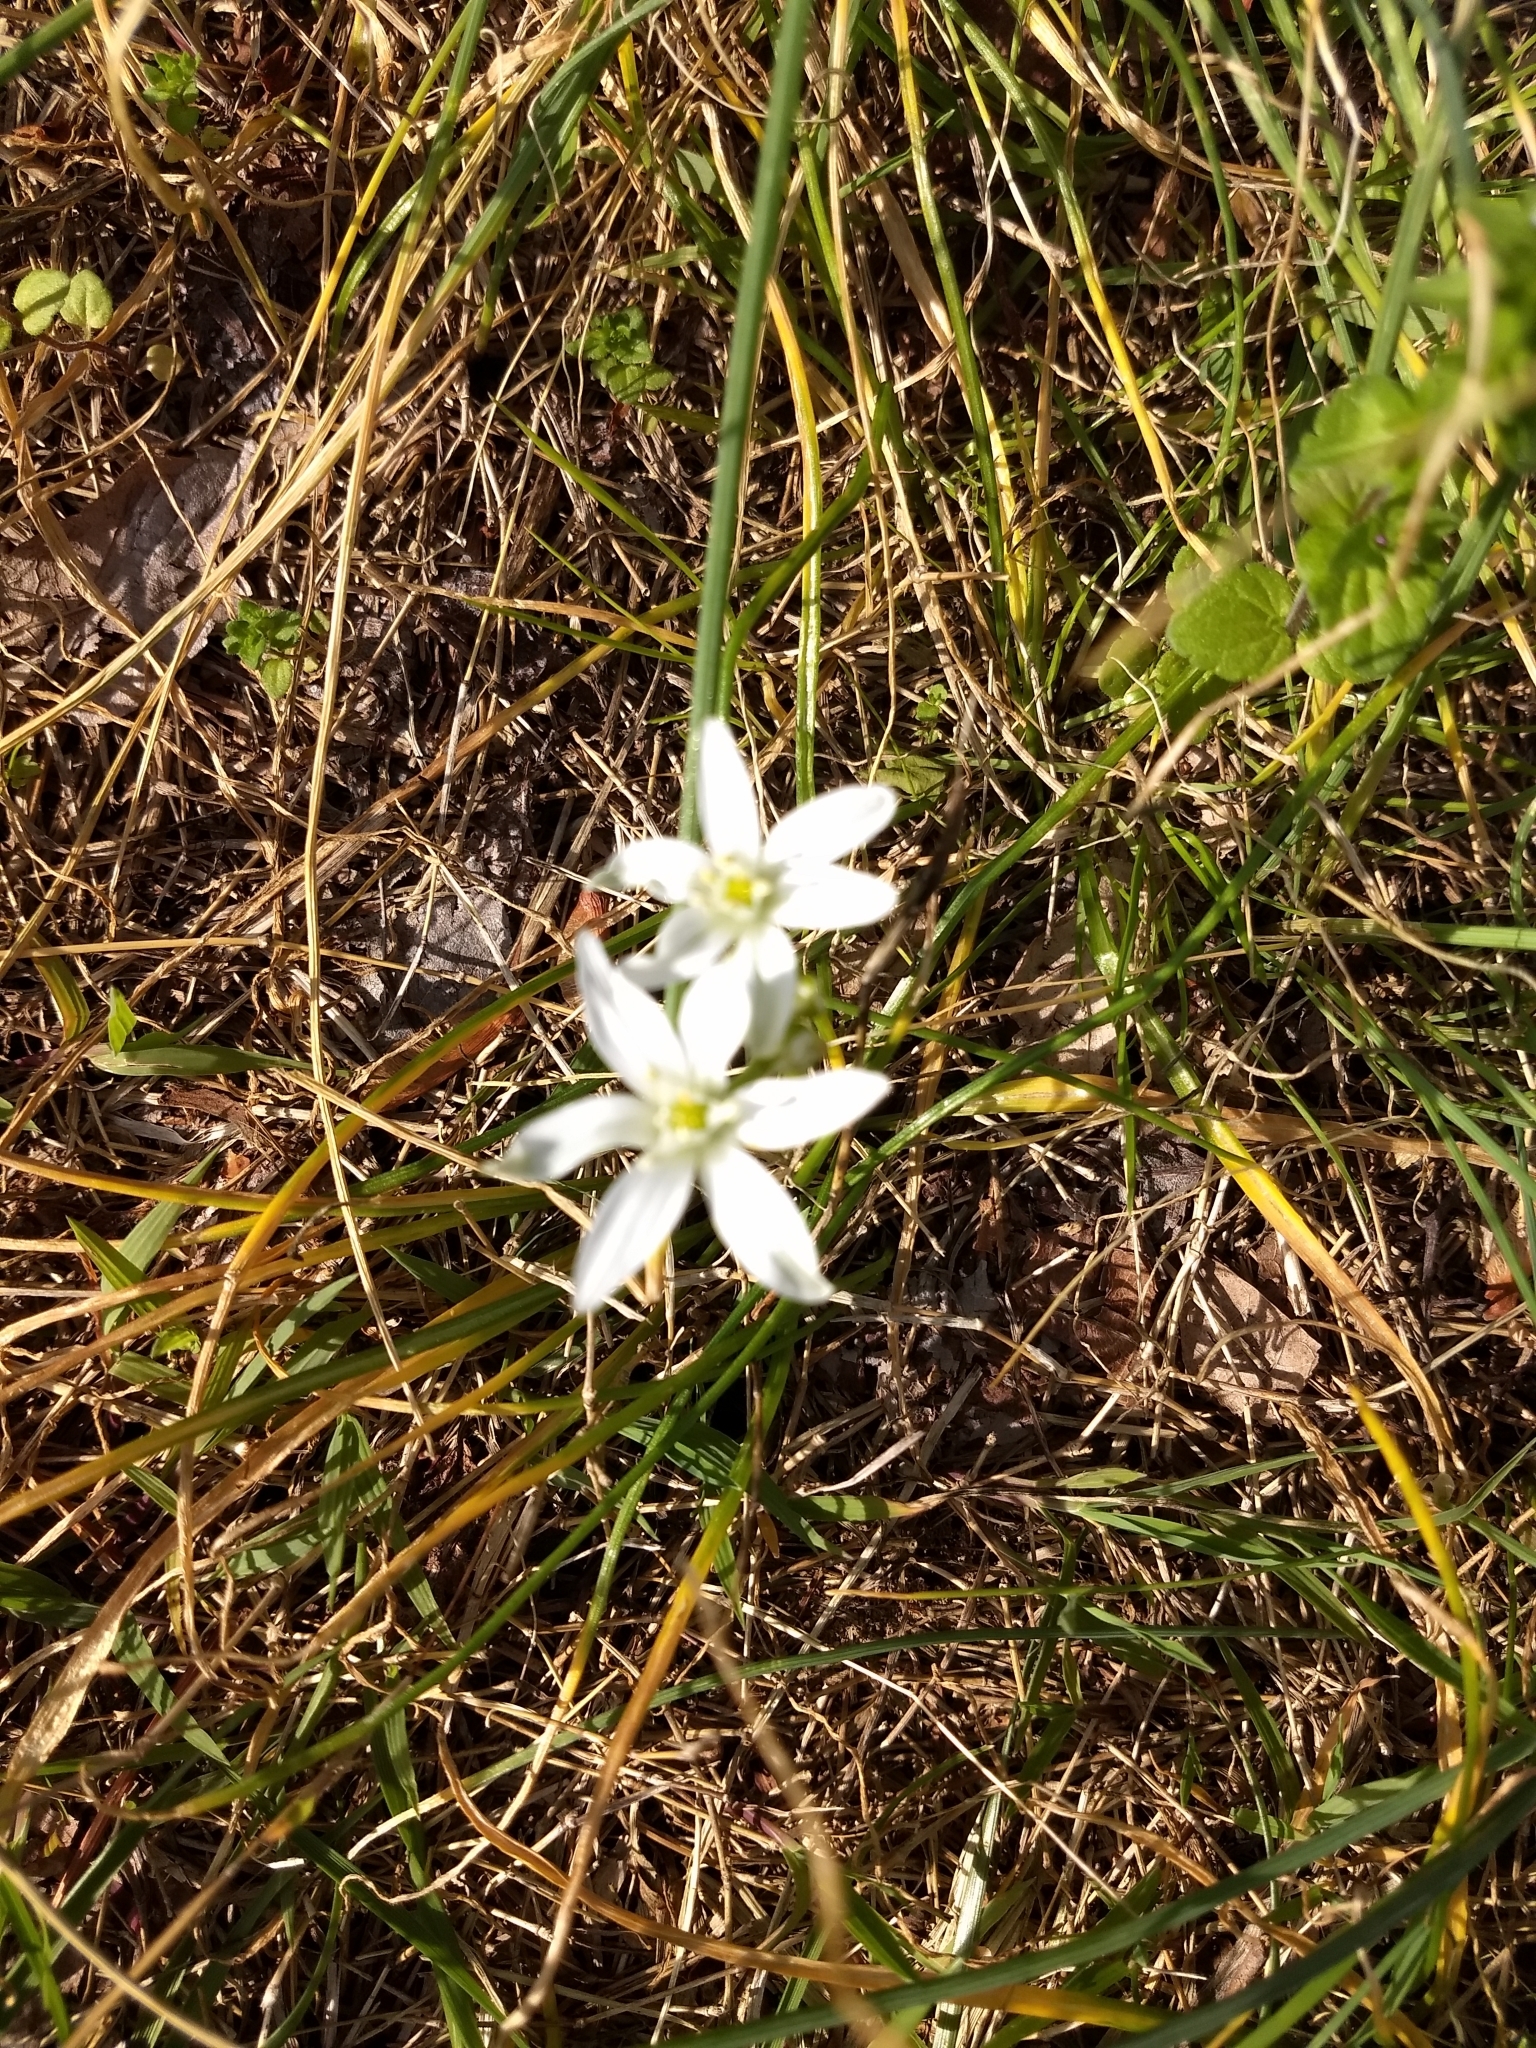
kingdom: Plantae
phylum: Tracheophyta
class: Liliopsida
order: Asparagales
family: Asparagaceae
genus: Ornithogalum
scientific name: Ornithogalum umbellatum
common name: Garden star-of-bethlehem
